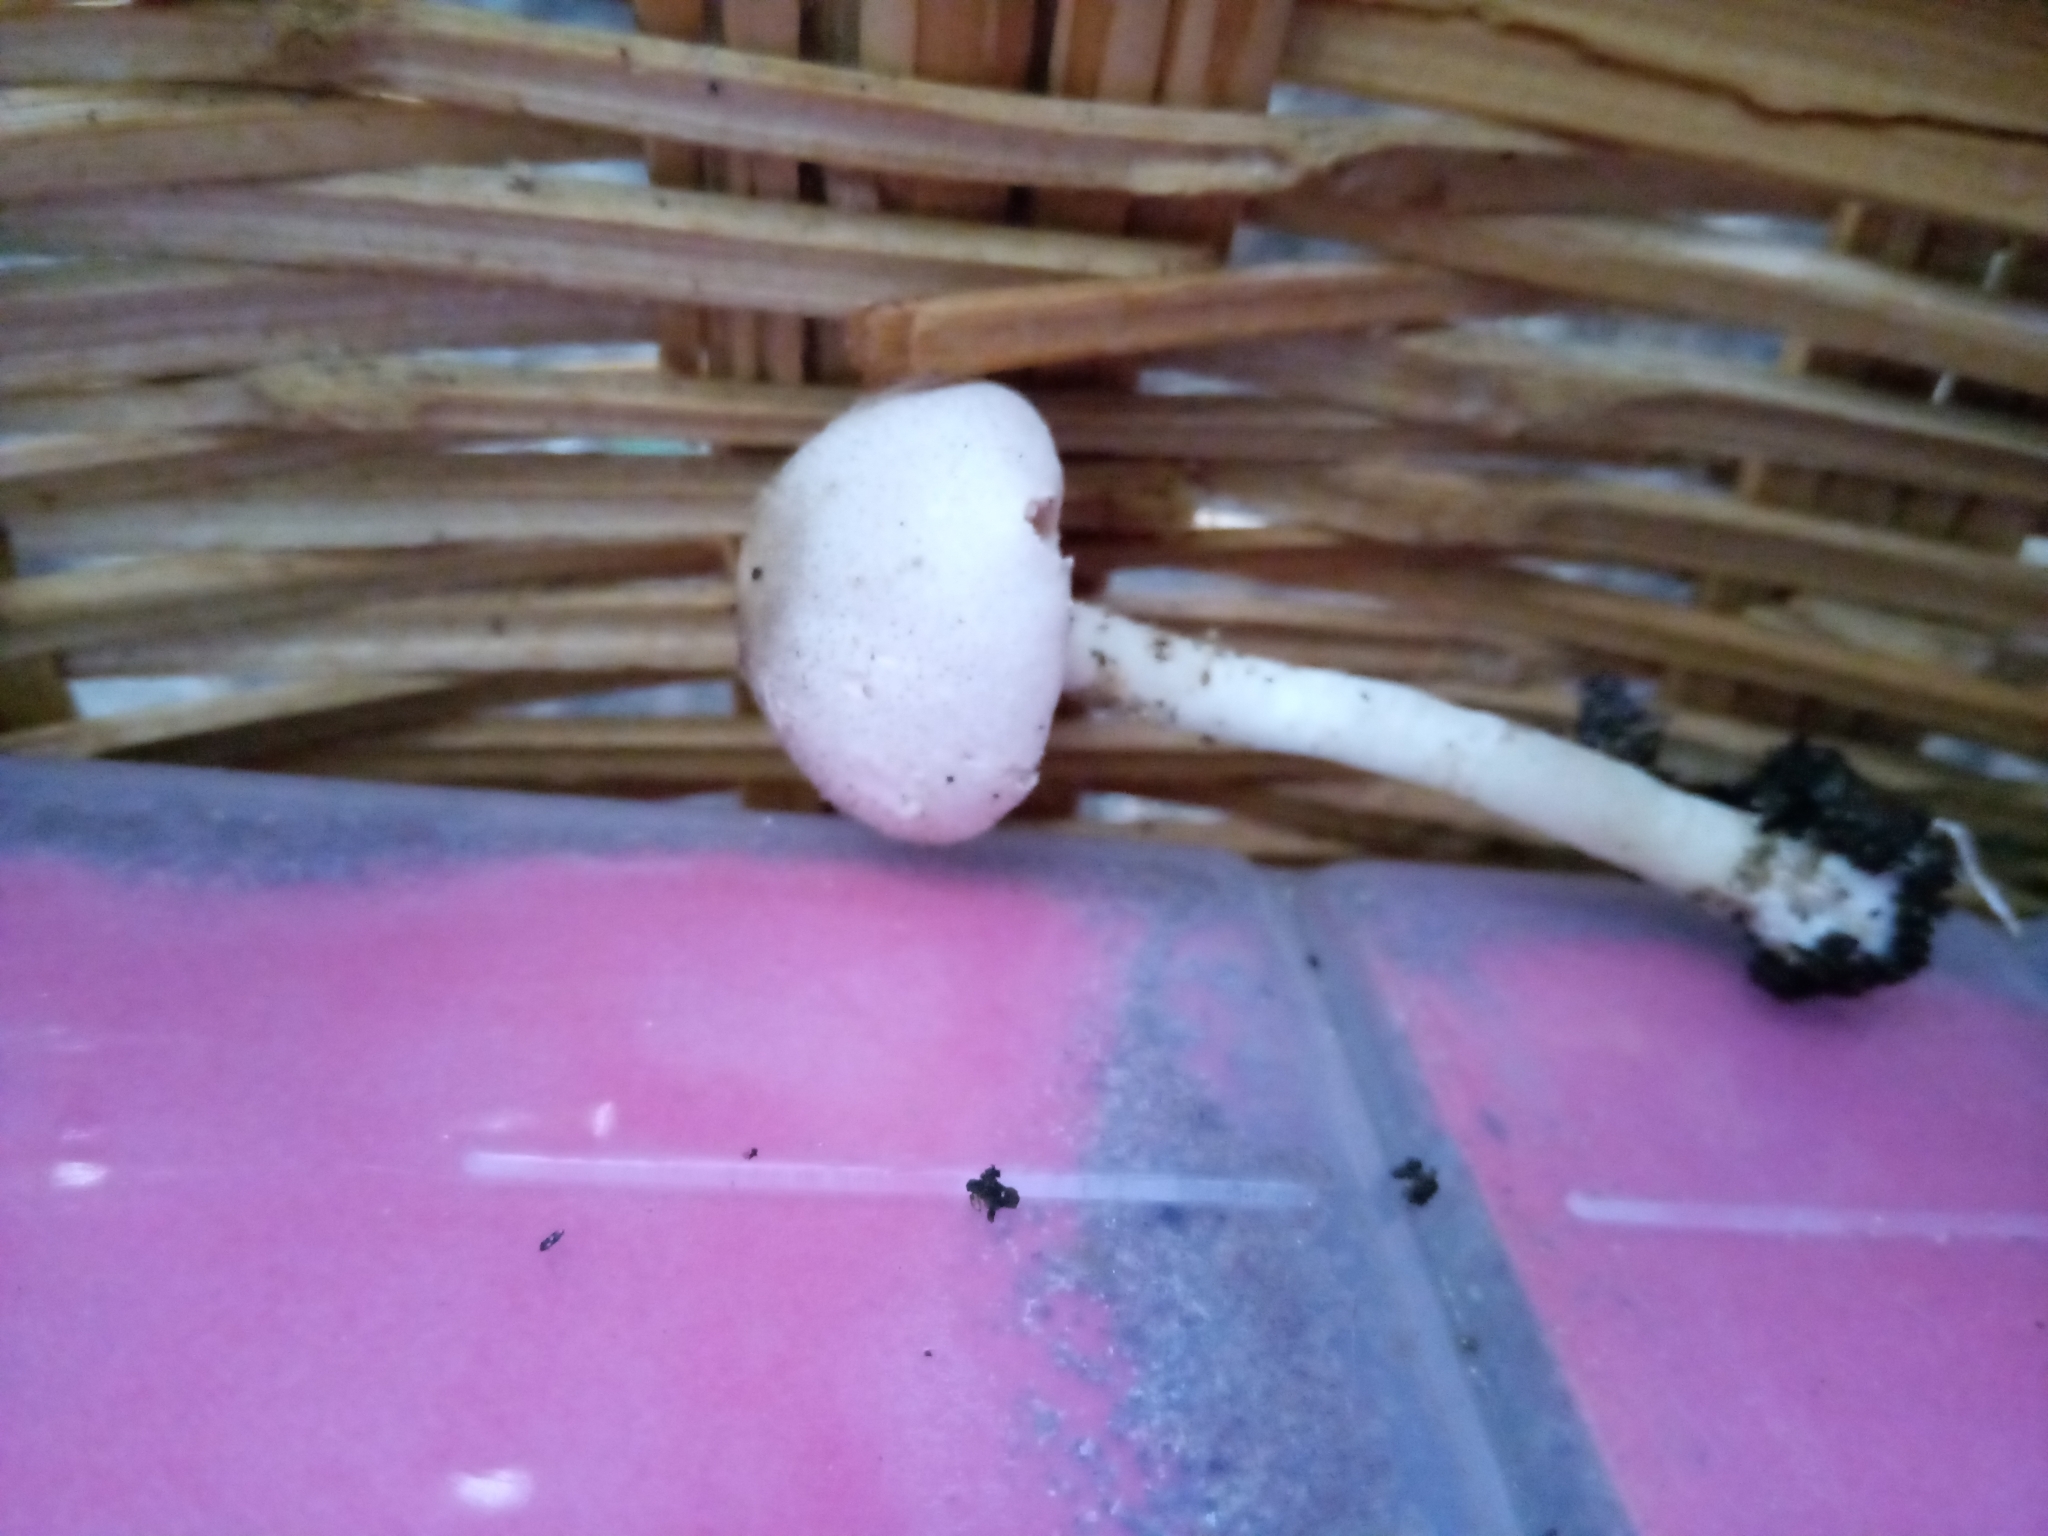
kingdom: Fungi
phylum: Basidiomycota
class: Agaricomycetes
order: Agaricales
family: Agaricaceae
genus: Agaricus
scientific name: Agaricus leptocaulis
